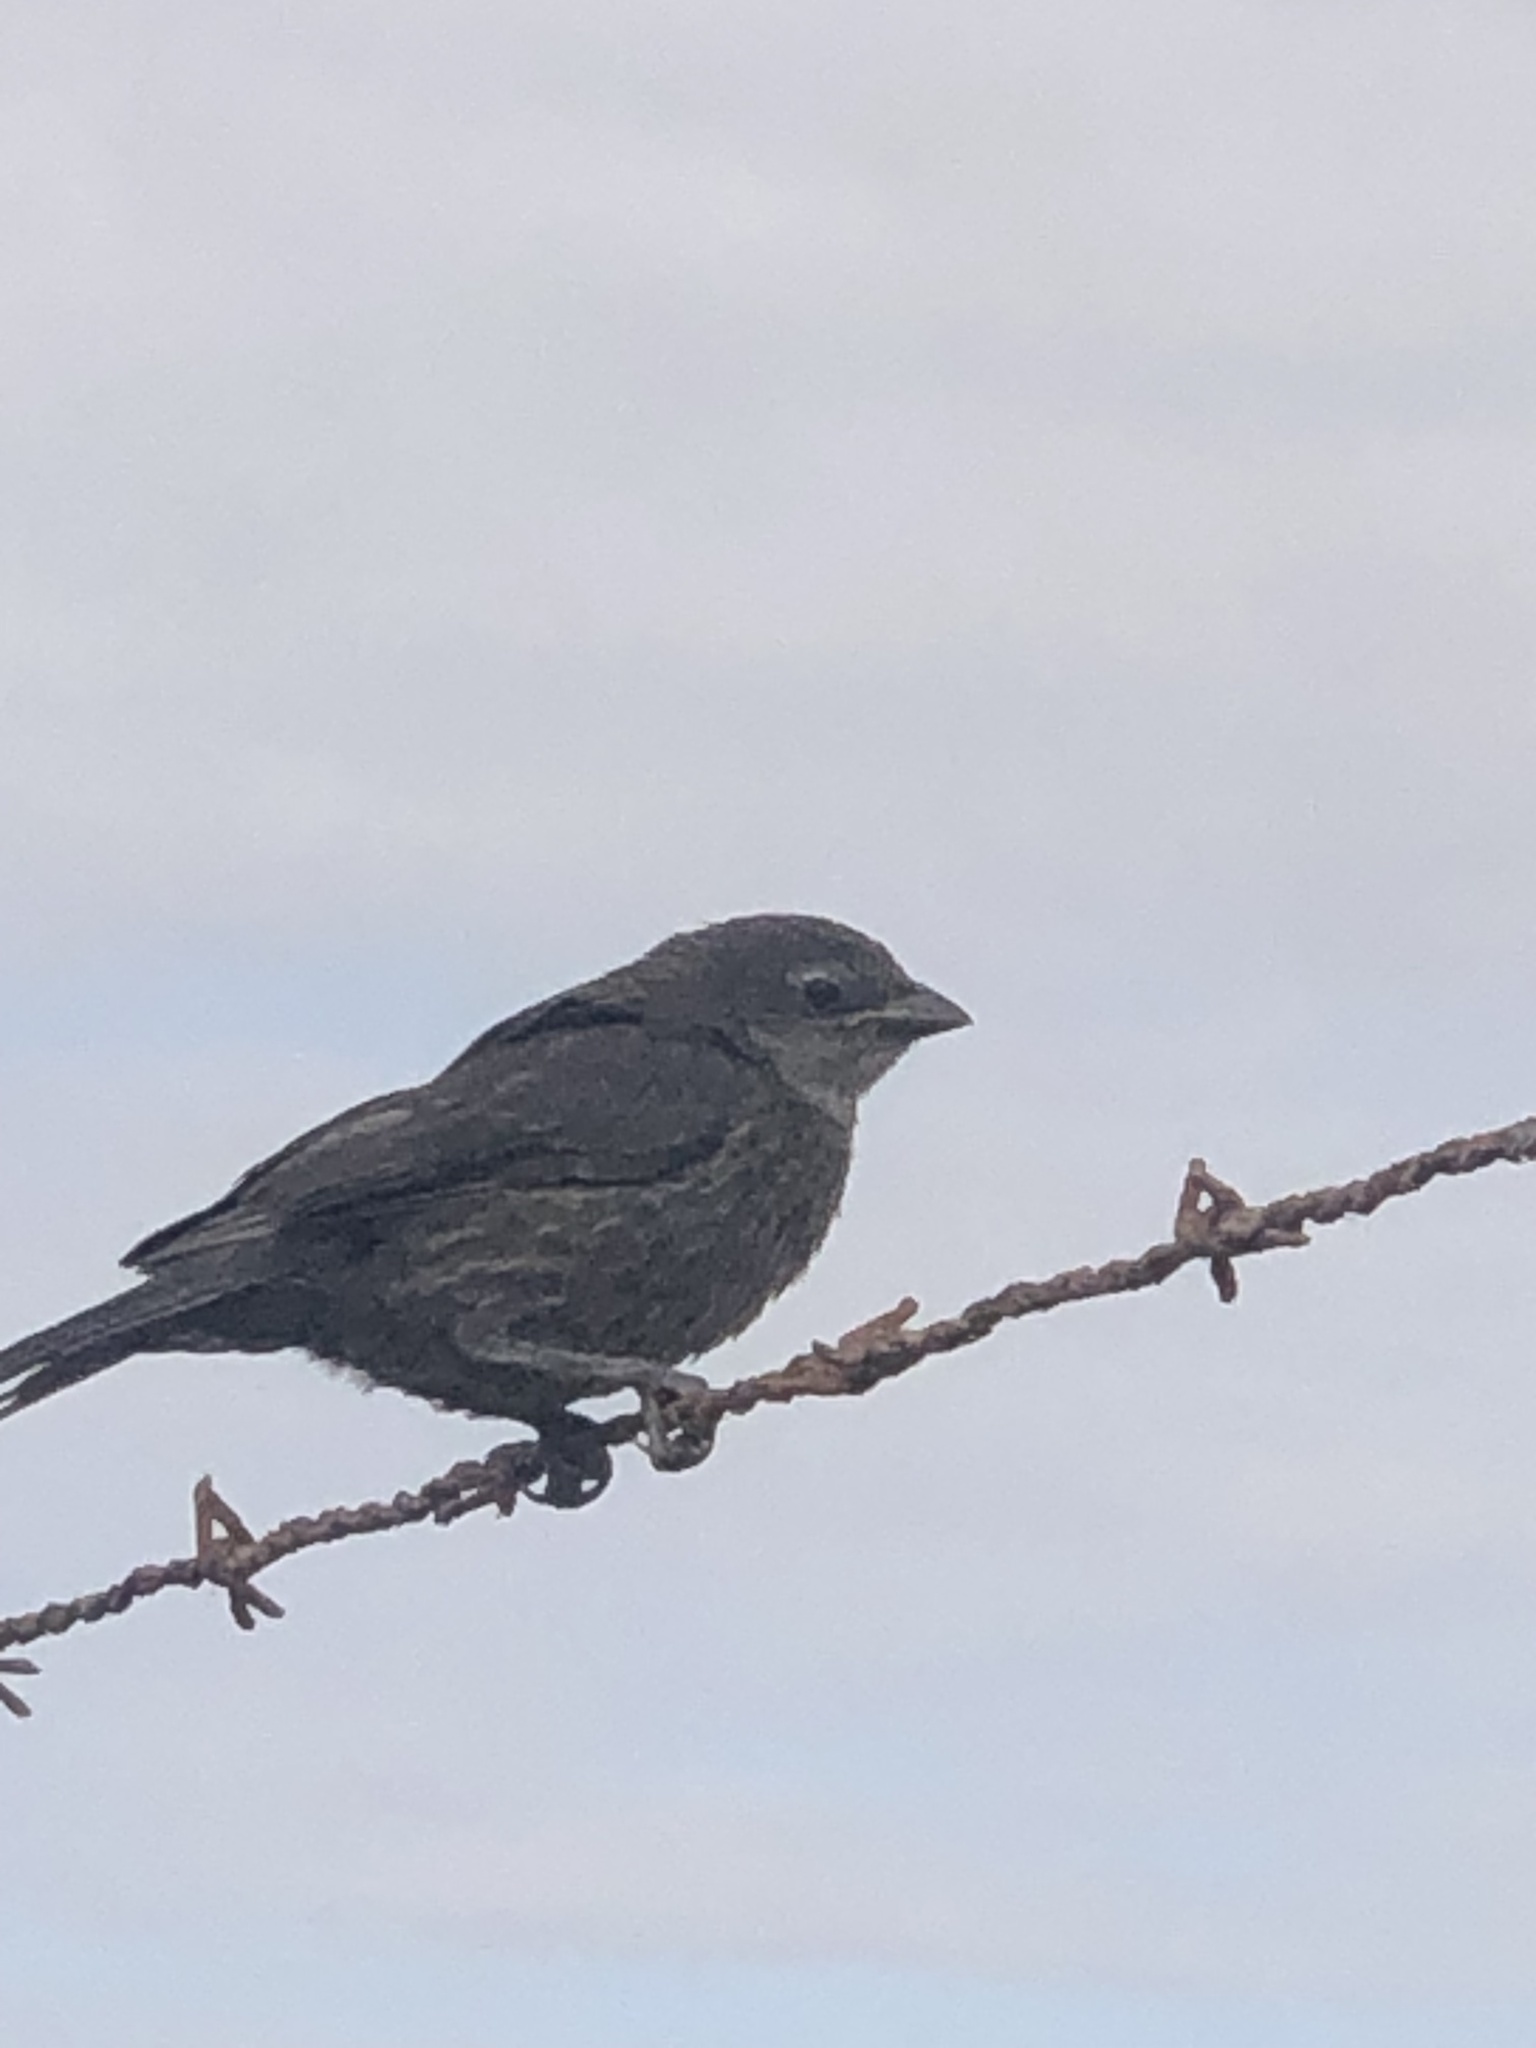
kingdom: Animalia
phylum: Chordata
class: Aves
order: Passeriformes
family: Icteridae
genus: Molothrus
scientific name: Molothrus bonariensis
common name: Shiny cowbird
